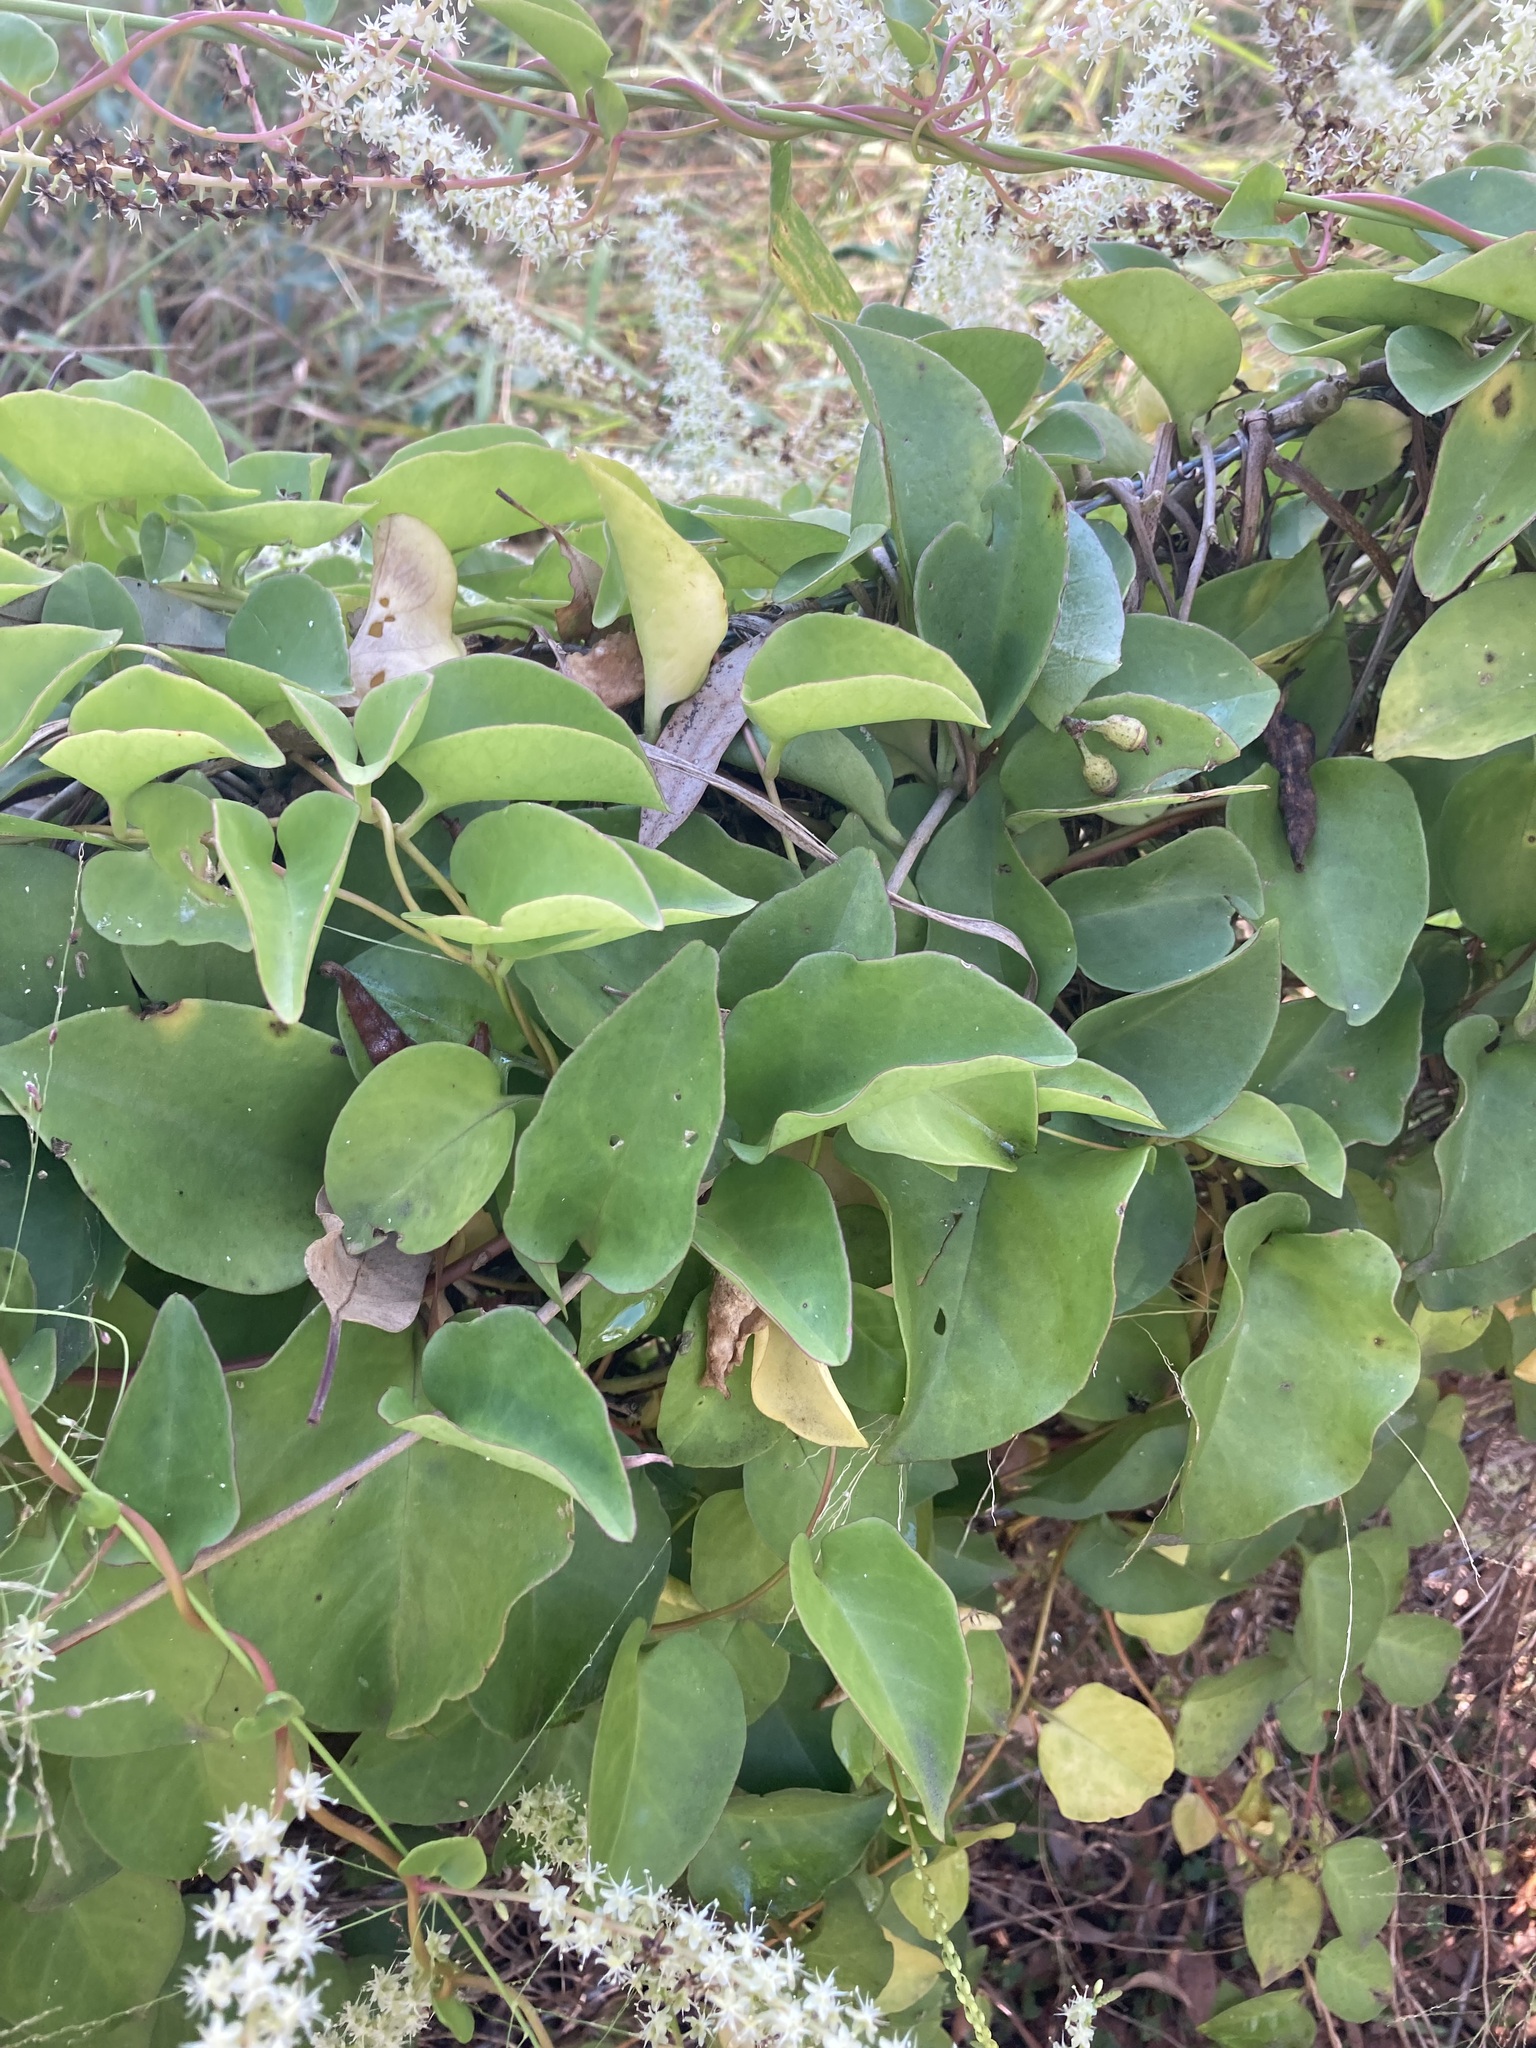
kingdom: Plantae
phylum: Tracheophyta
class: Magnoliopsida
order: Caryophyllales
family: Basellaceae
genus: Anredera
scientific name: Anredera cordifolia
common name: Heartleaf madeiravine
